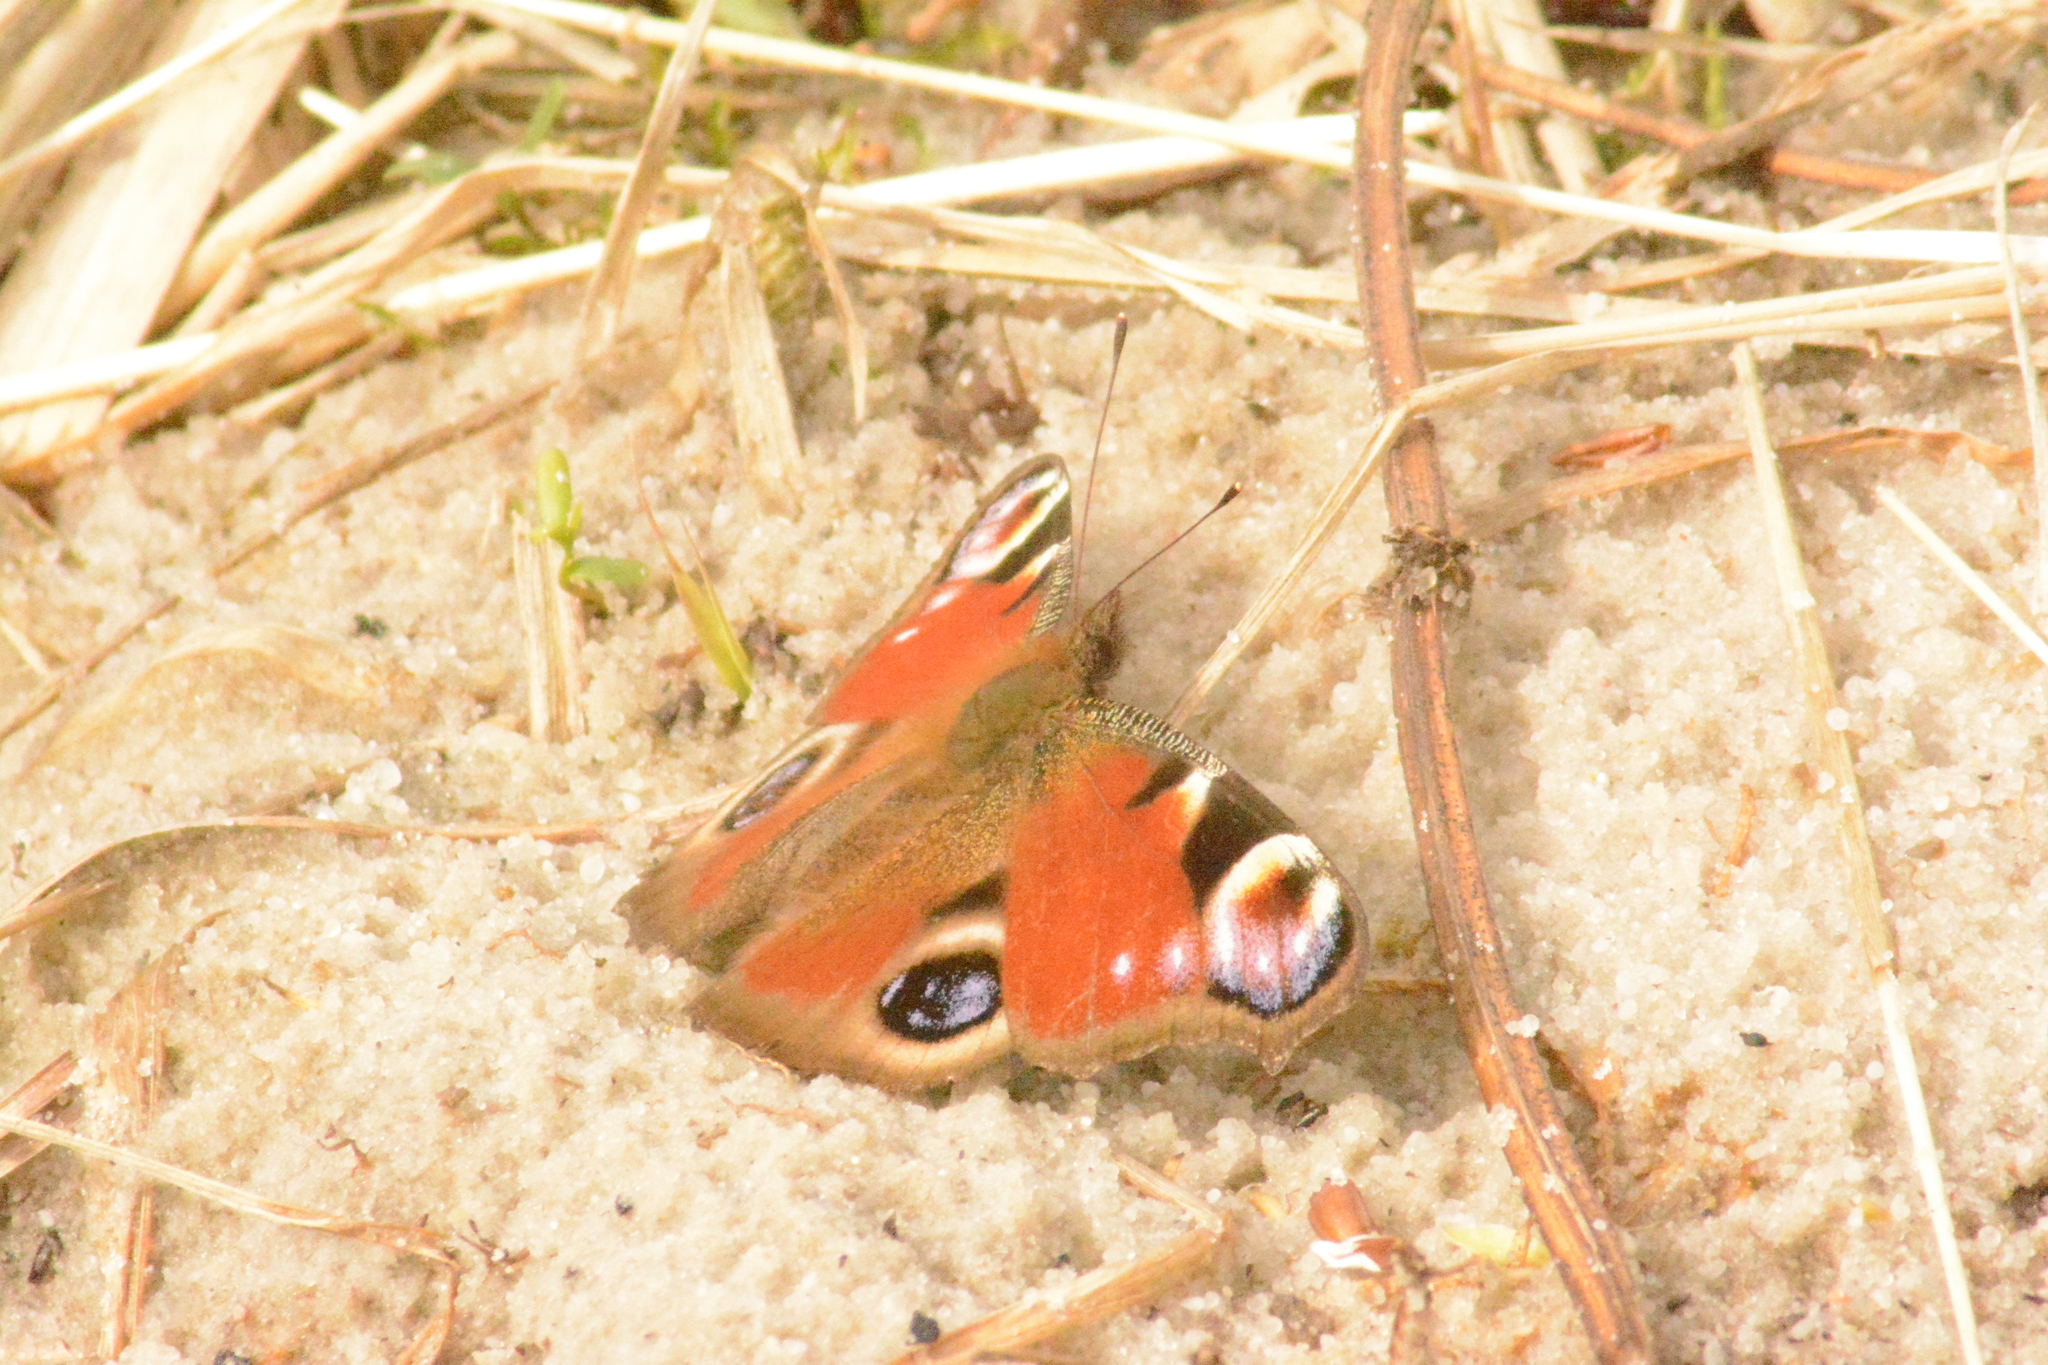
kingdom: Animalia
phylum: Arthropoda
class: Insecta
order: Lepidoptera
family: Nymphalidae
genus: Aglais
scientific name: Aglais io
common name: Peacock
